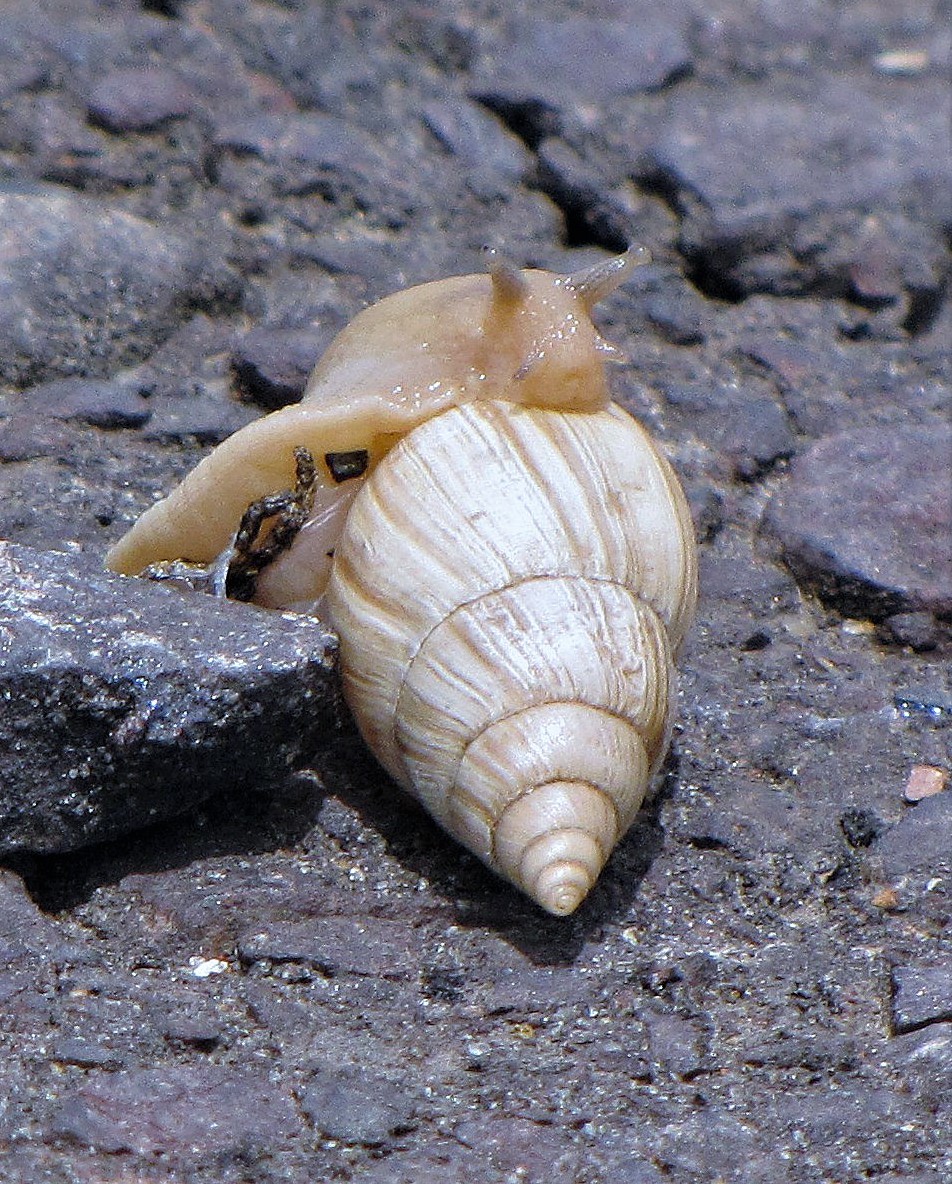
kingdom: Animalia
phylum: Mollusca
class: Gastropoda
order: Stylommatophora
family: Bulimulidae
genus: Bulimulus
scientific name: Bulimulus bonariensis
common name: Snail
